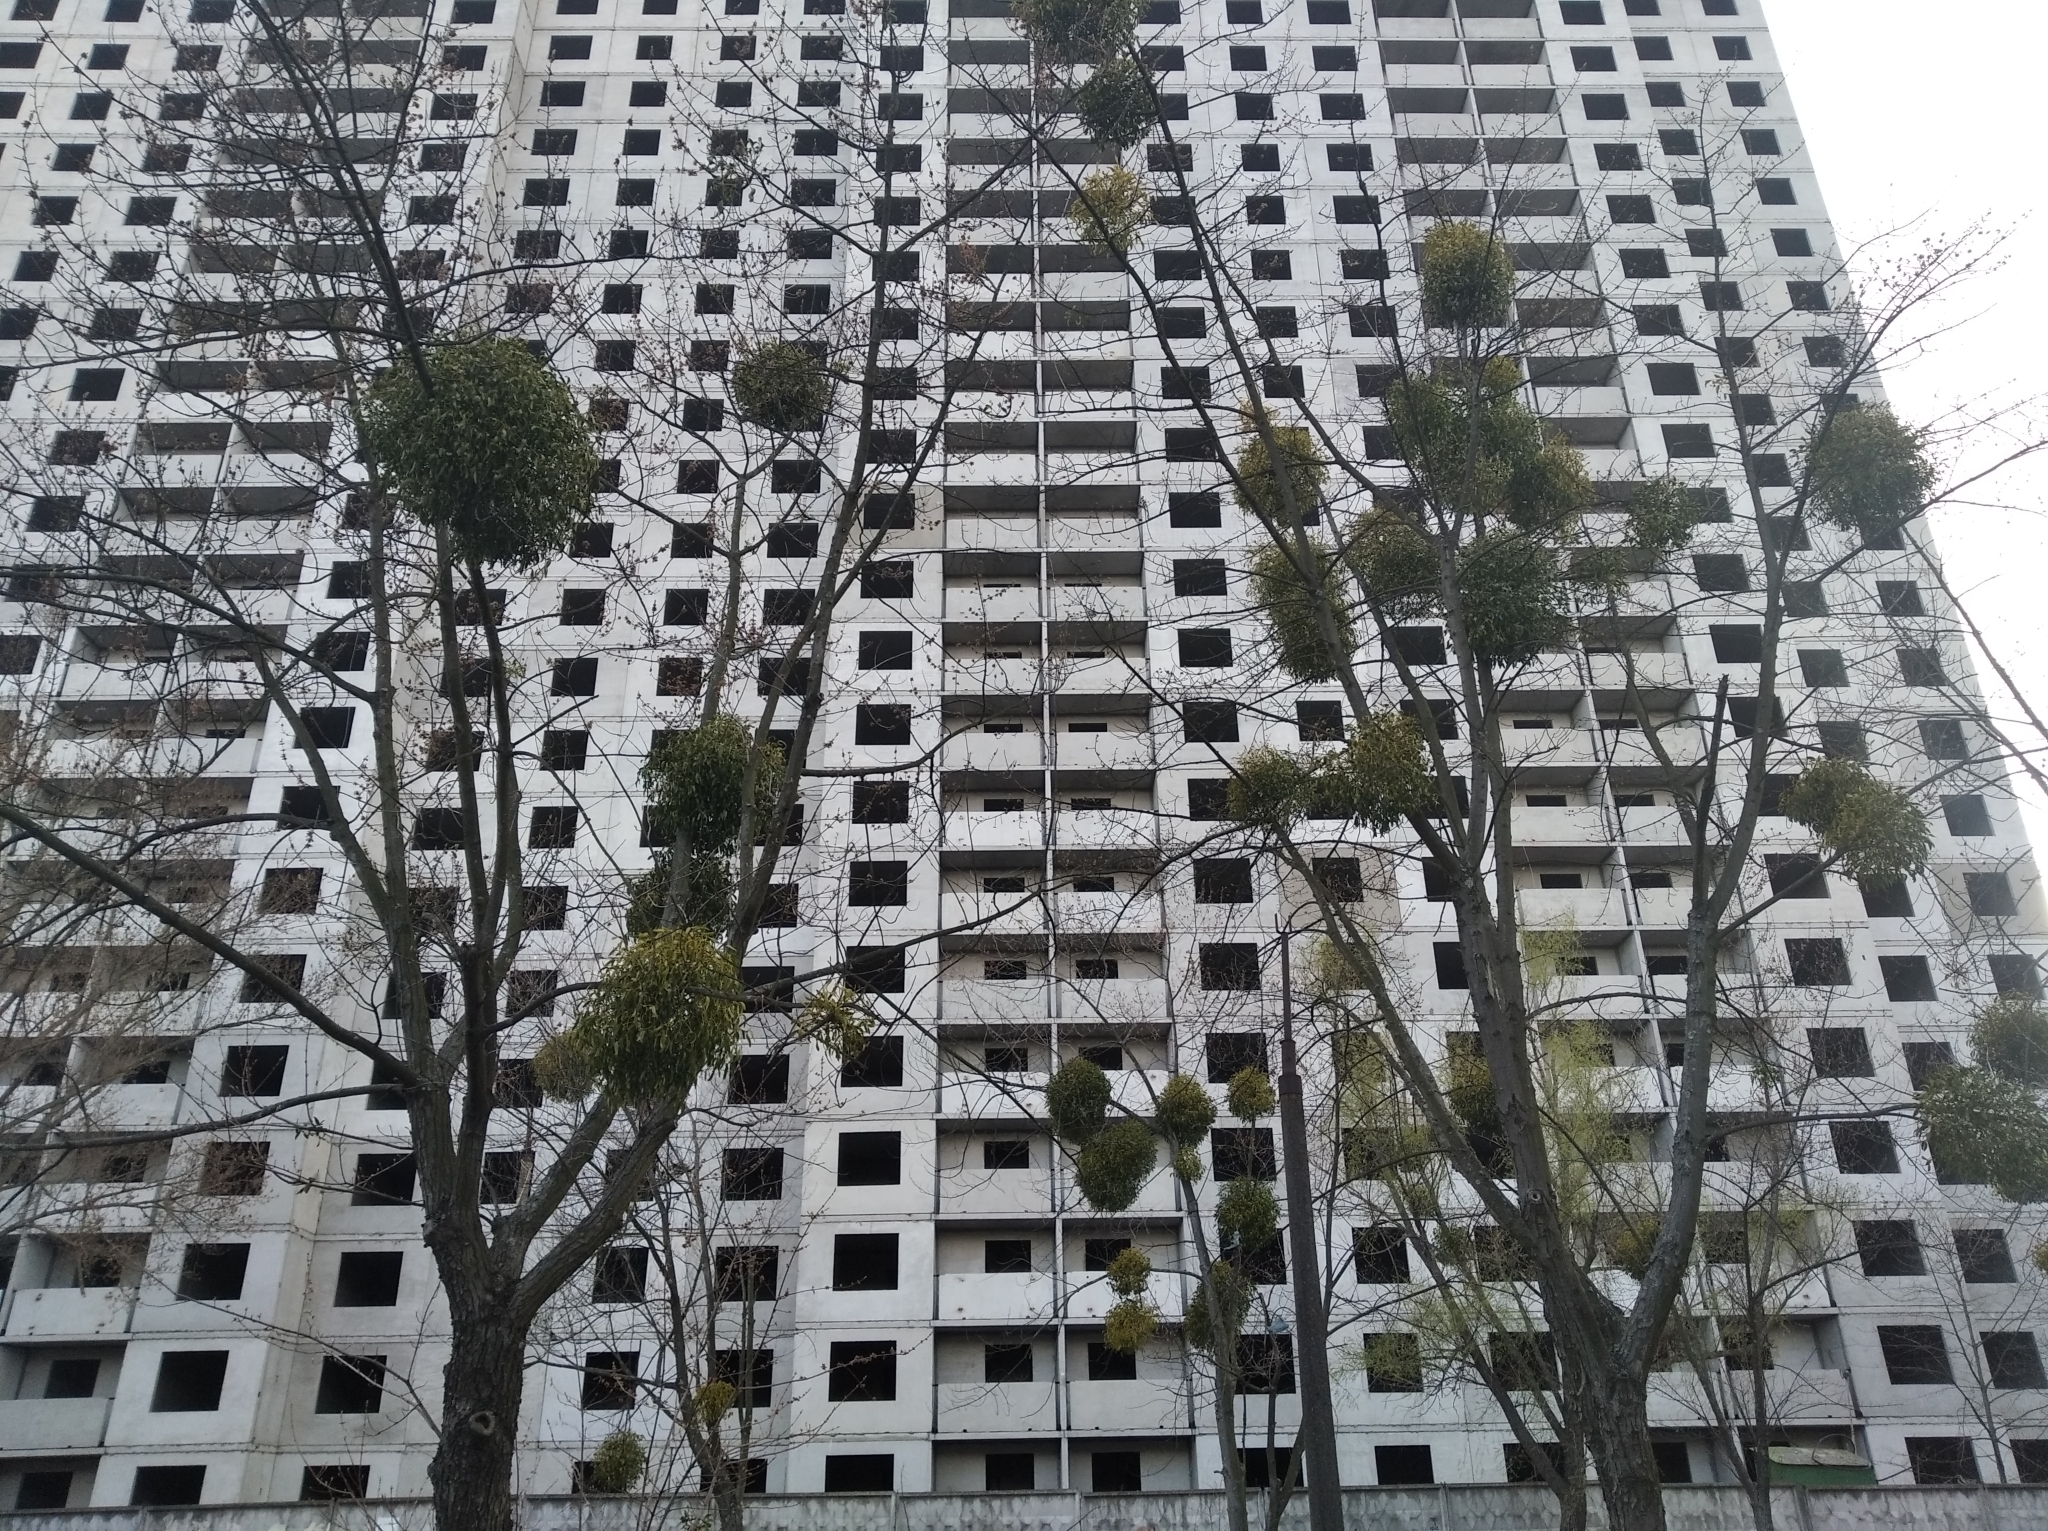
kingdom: Plantae
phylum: Tracheophyta
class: Magnoliopsida
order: Santalales
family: Viscaceae
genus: Viscum
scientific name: Viscum album
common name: Mistletoe
